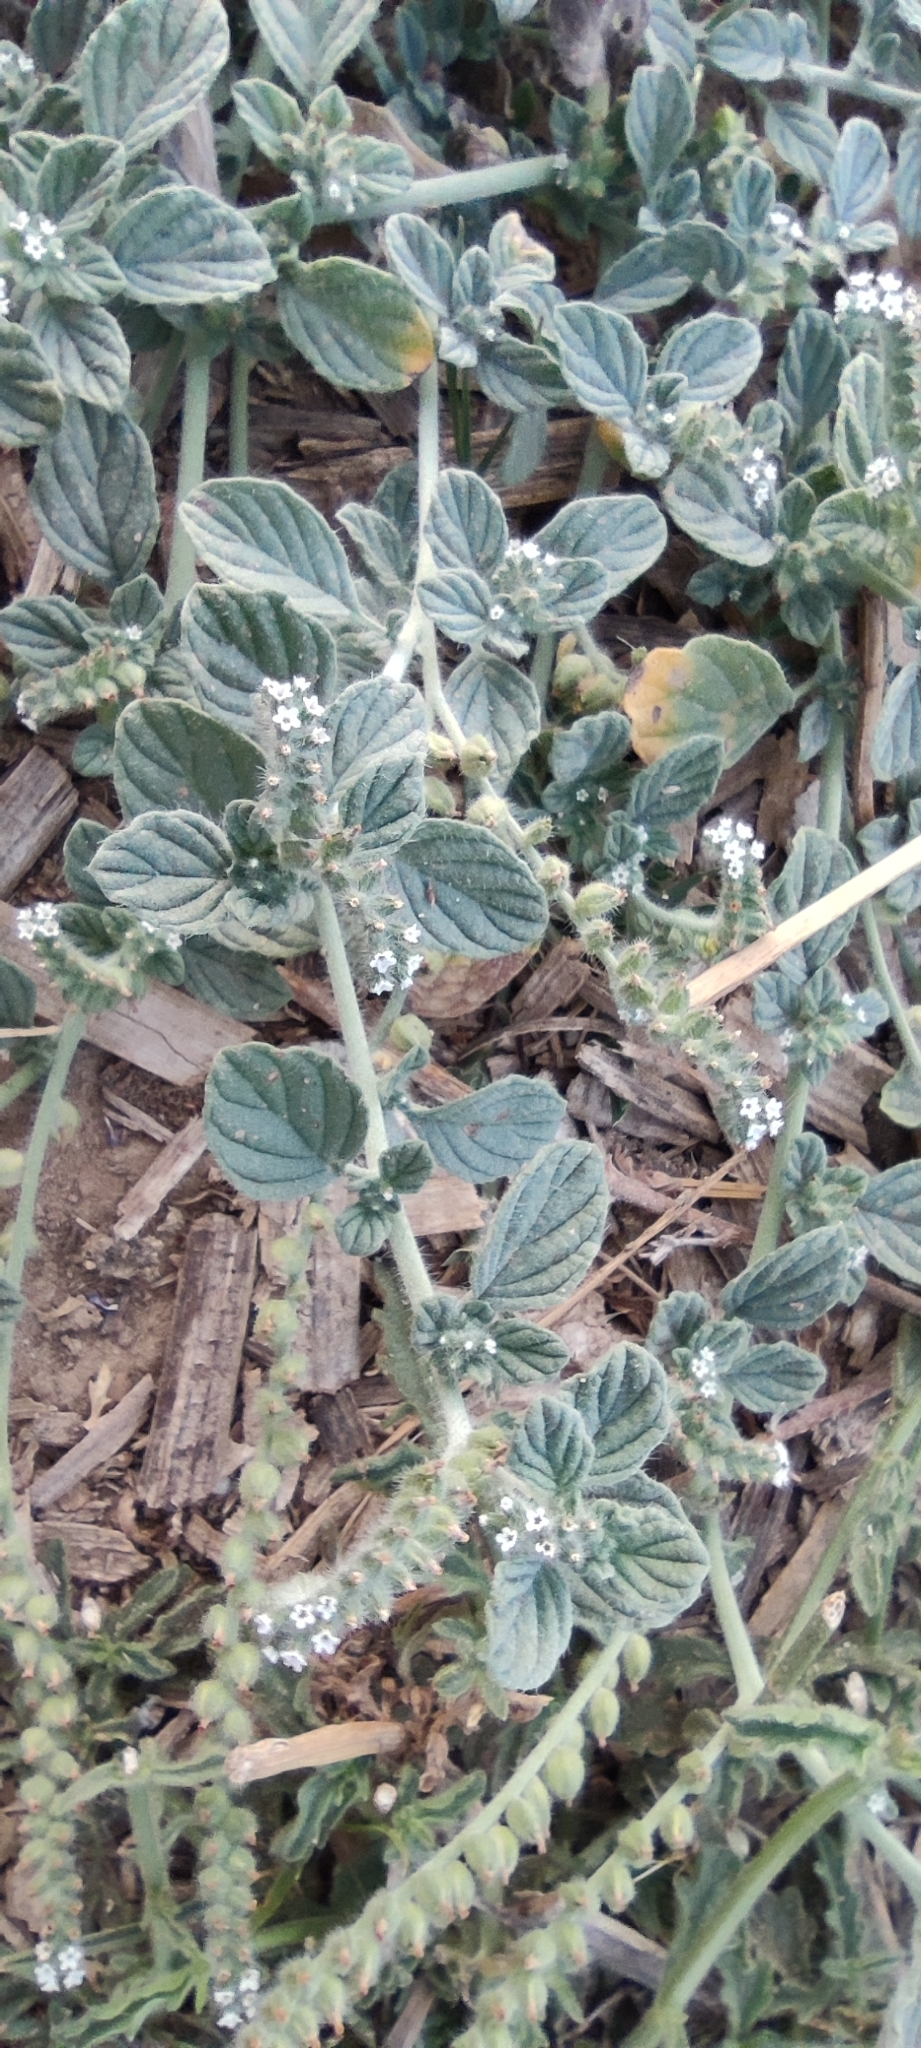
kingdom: Plantae
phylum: Tracheophyta
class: Magnoliopsida
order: Boraginales
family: Heliotropiaceae
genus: Heliotropium
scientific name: Heliotropium supinum
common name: Dwarf heliotrope
